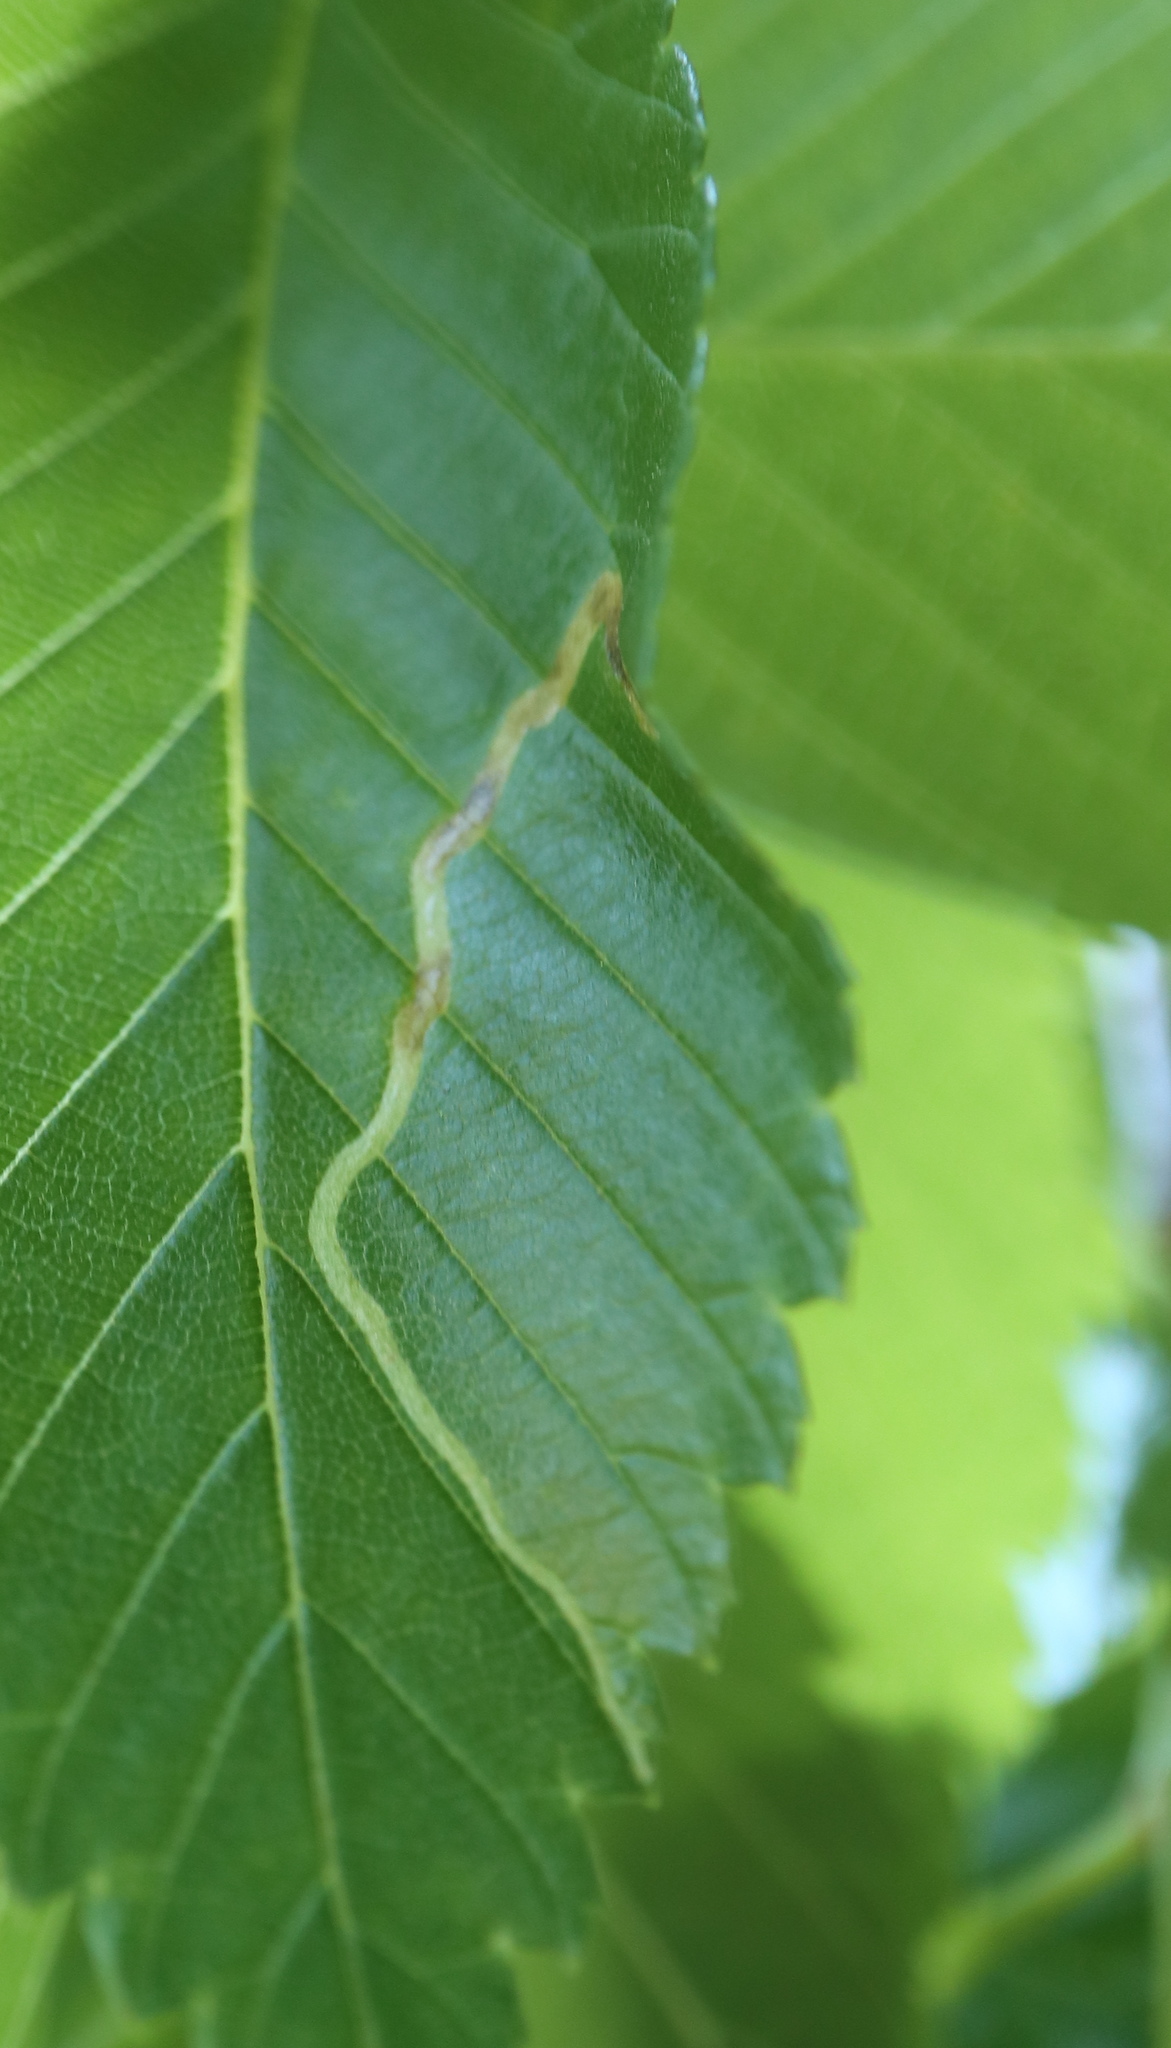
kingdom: Animalia
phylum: Arthropoda
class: Insecta
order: Diptera
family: Agromyzidae
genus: Agromyza
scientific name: Agromyza aristata
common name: Elm agromyzid leafminer
